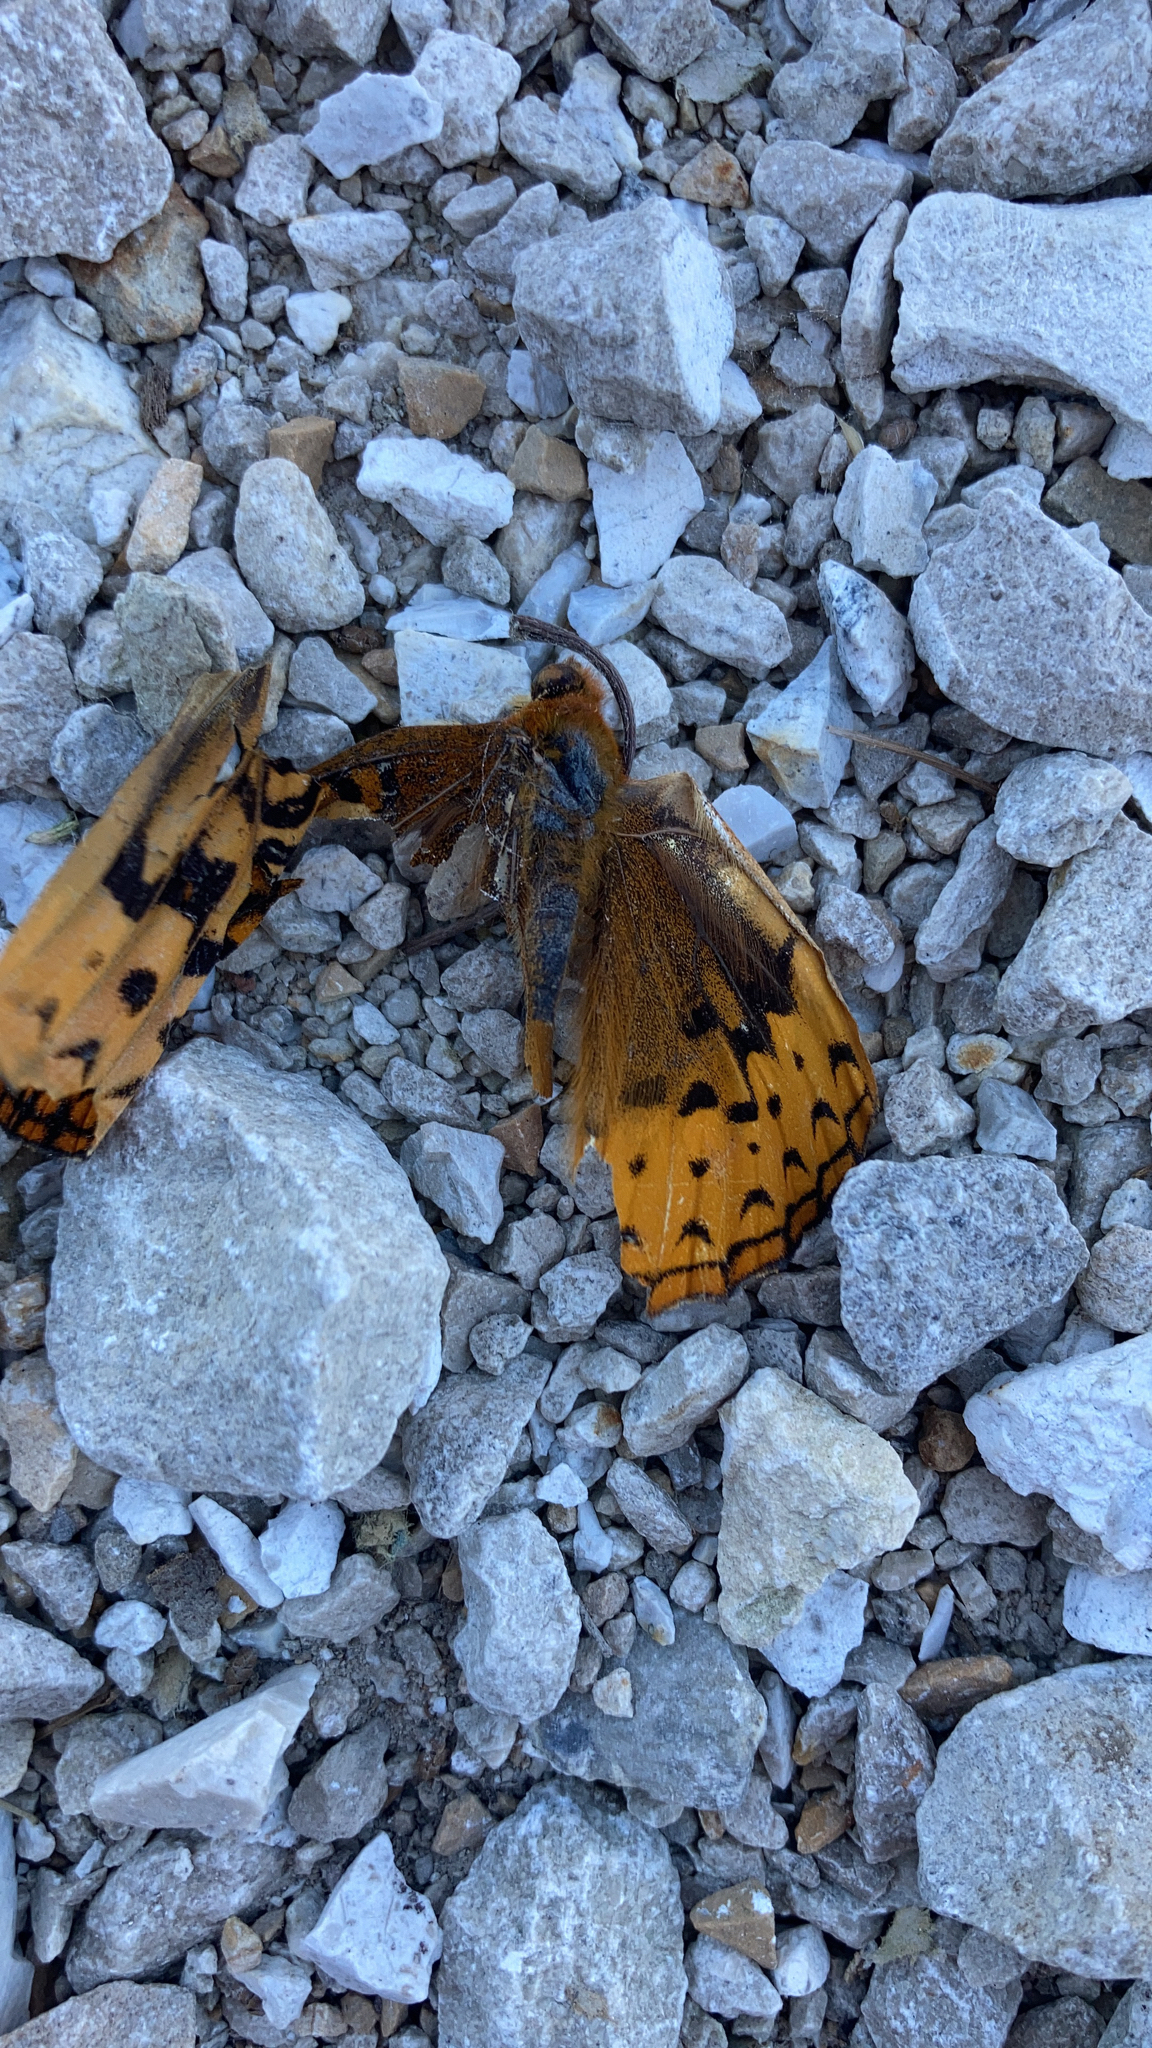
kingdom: Animalia
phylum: Arthropoda
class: Insecta
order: Lepidoptera
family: Nymphalidae
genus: Speyeria
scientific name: Speyeria cybele
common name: Great spangled fritillary
